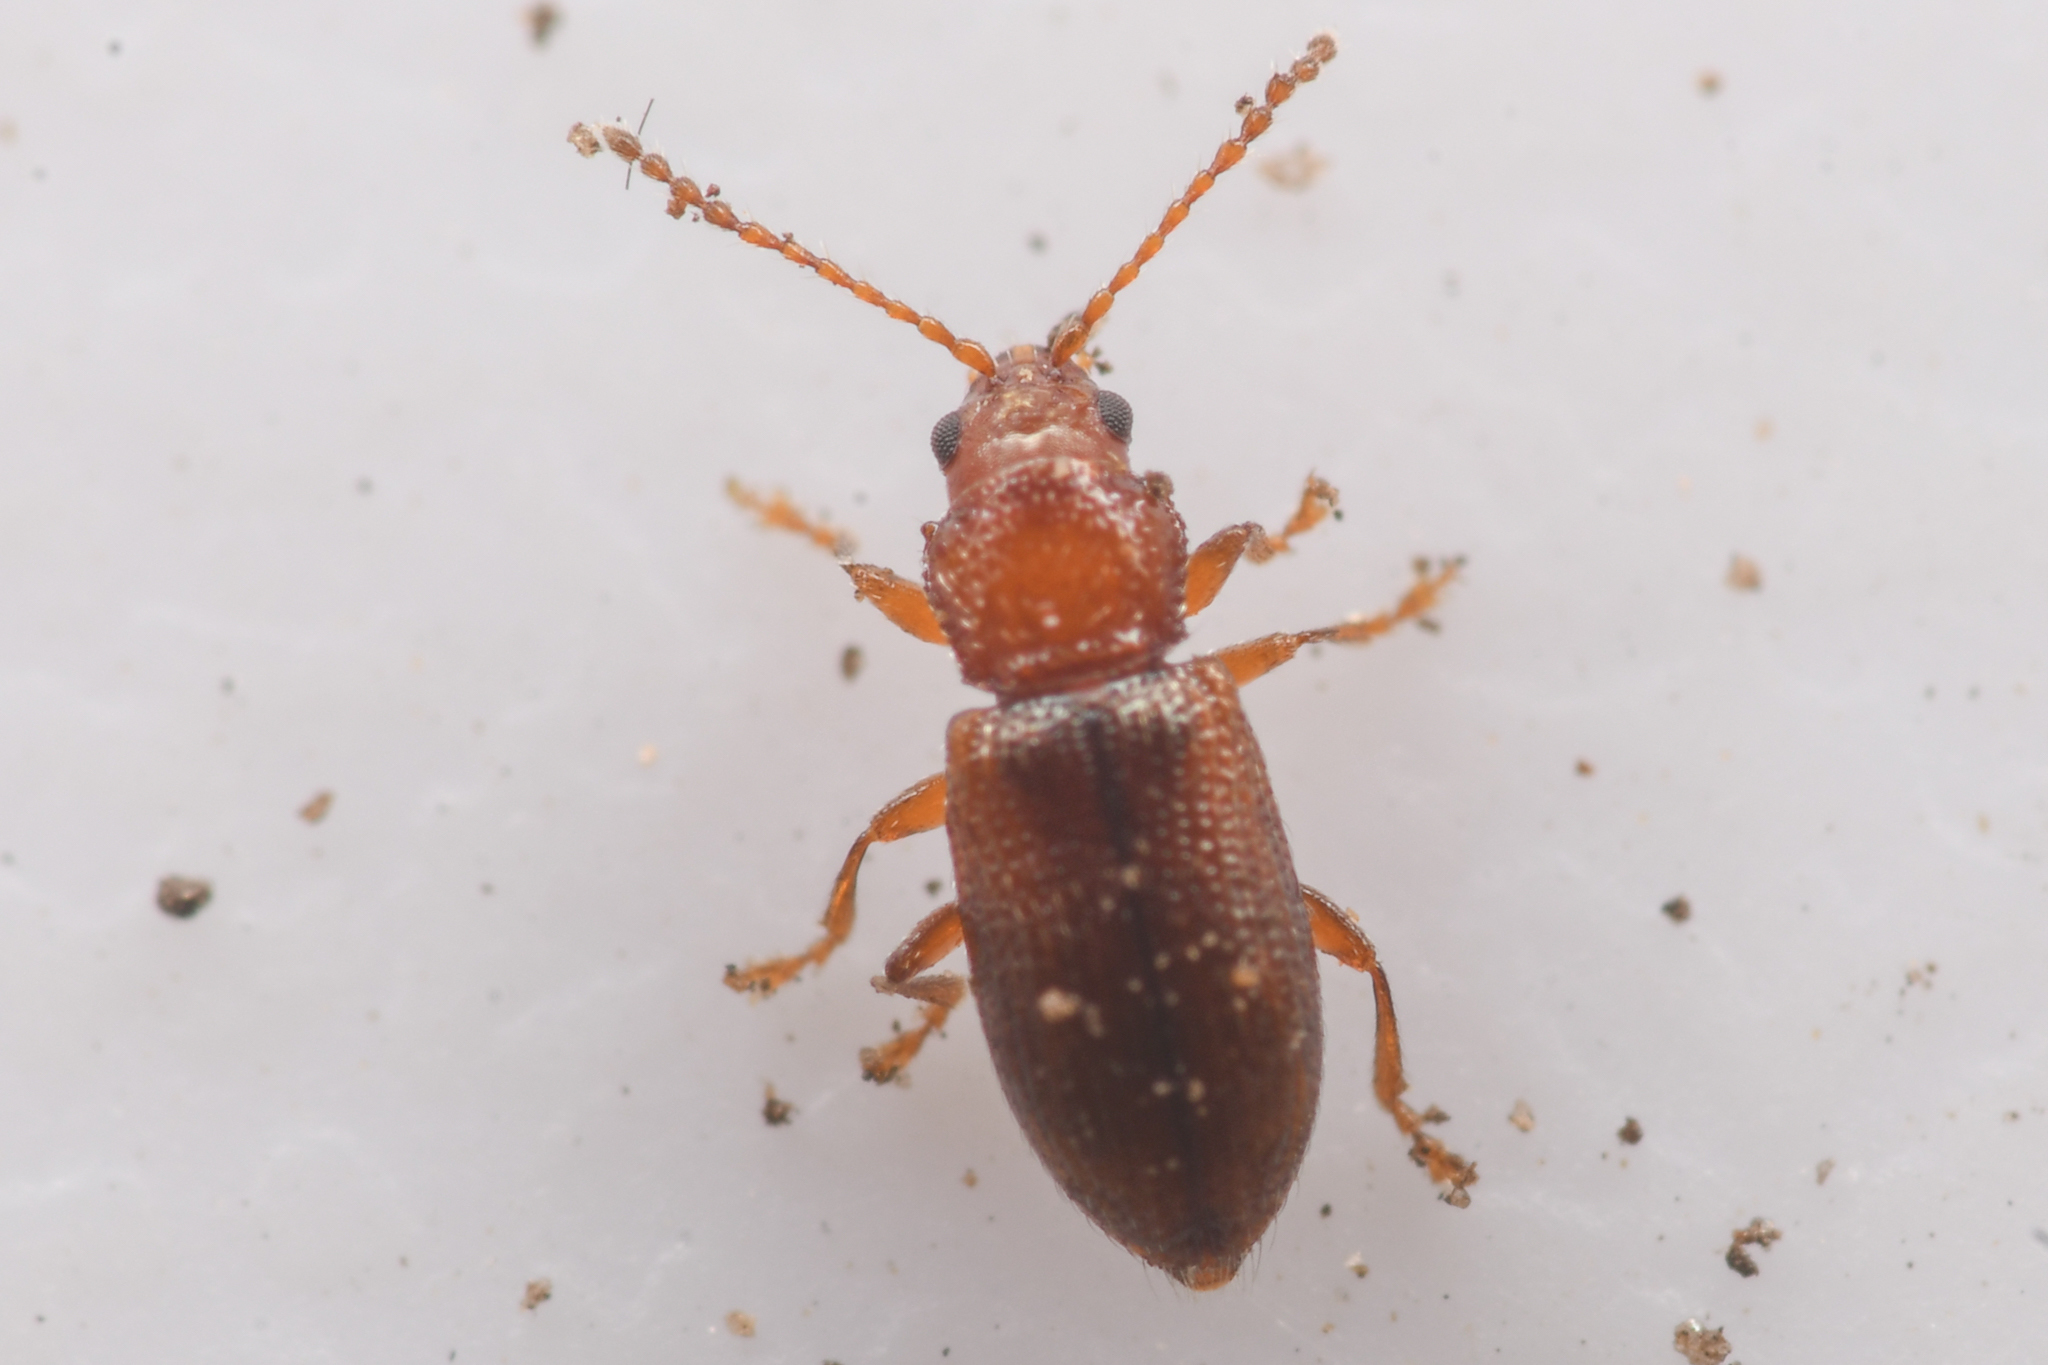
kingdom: Animalia
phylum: Arthropoda
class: Insecta
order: Coleoptera
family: Chrysomelidae
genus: Aulacothorax
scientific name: Aulacothorax
